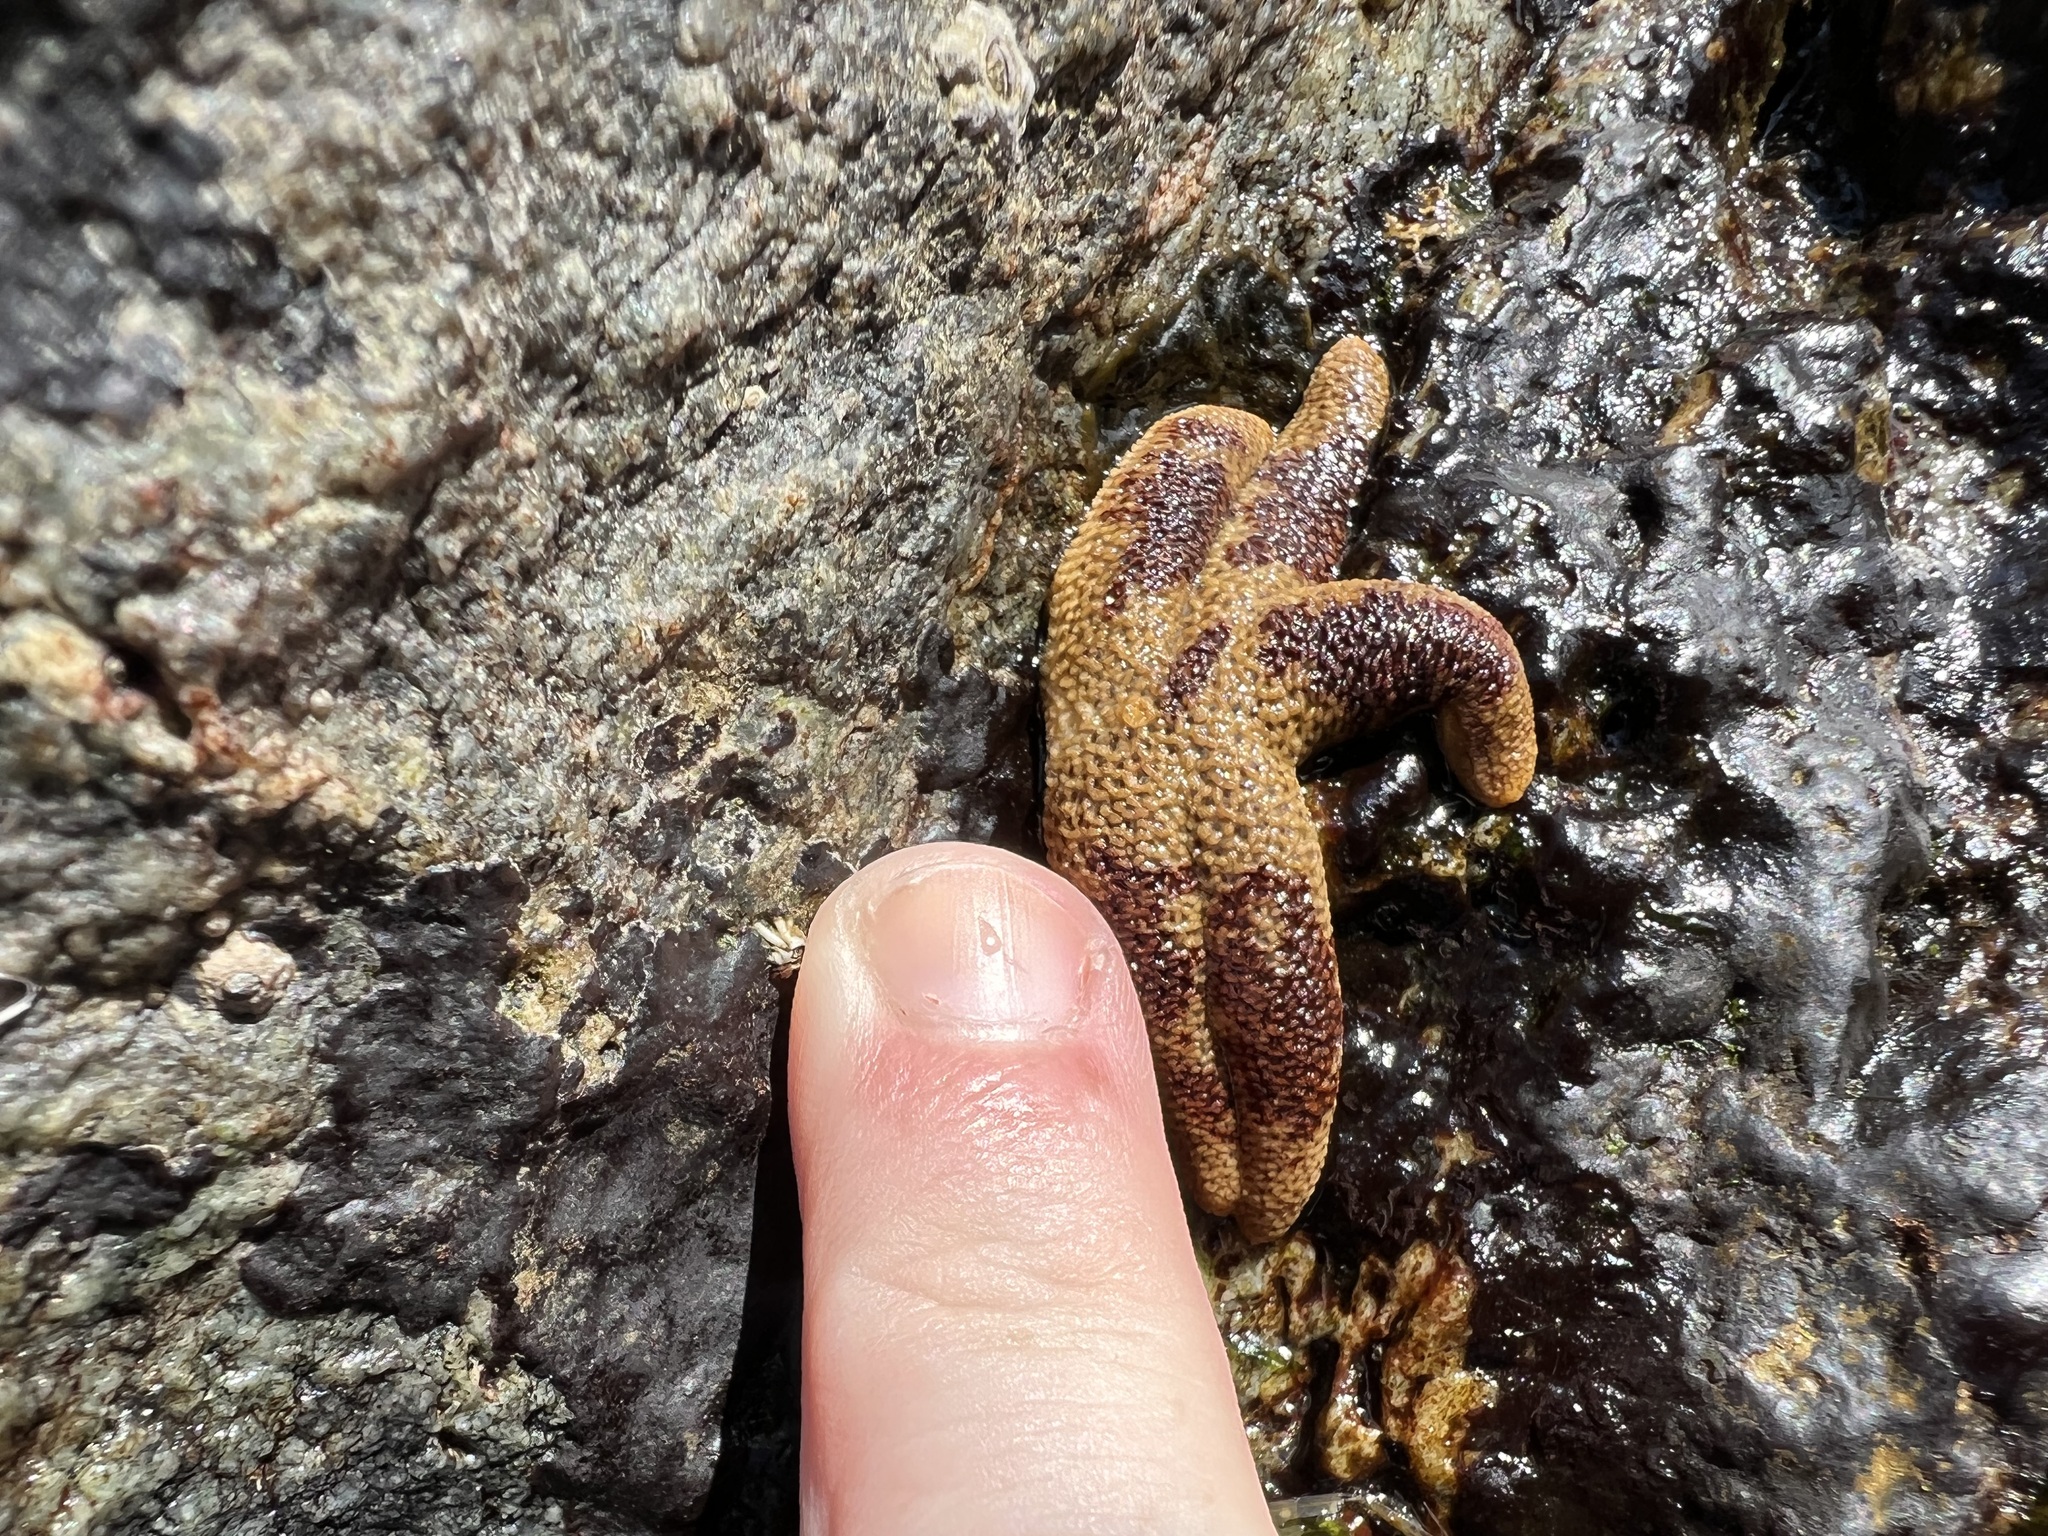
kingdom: Animalia
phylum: Echinodermata
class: Asteroidea
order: Spinulosida
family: Echinasteridae
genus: Henricia
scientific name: Henricia pumila
